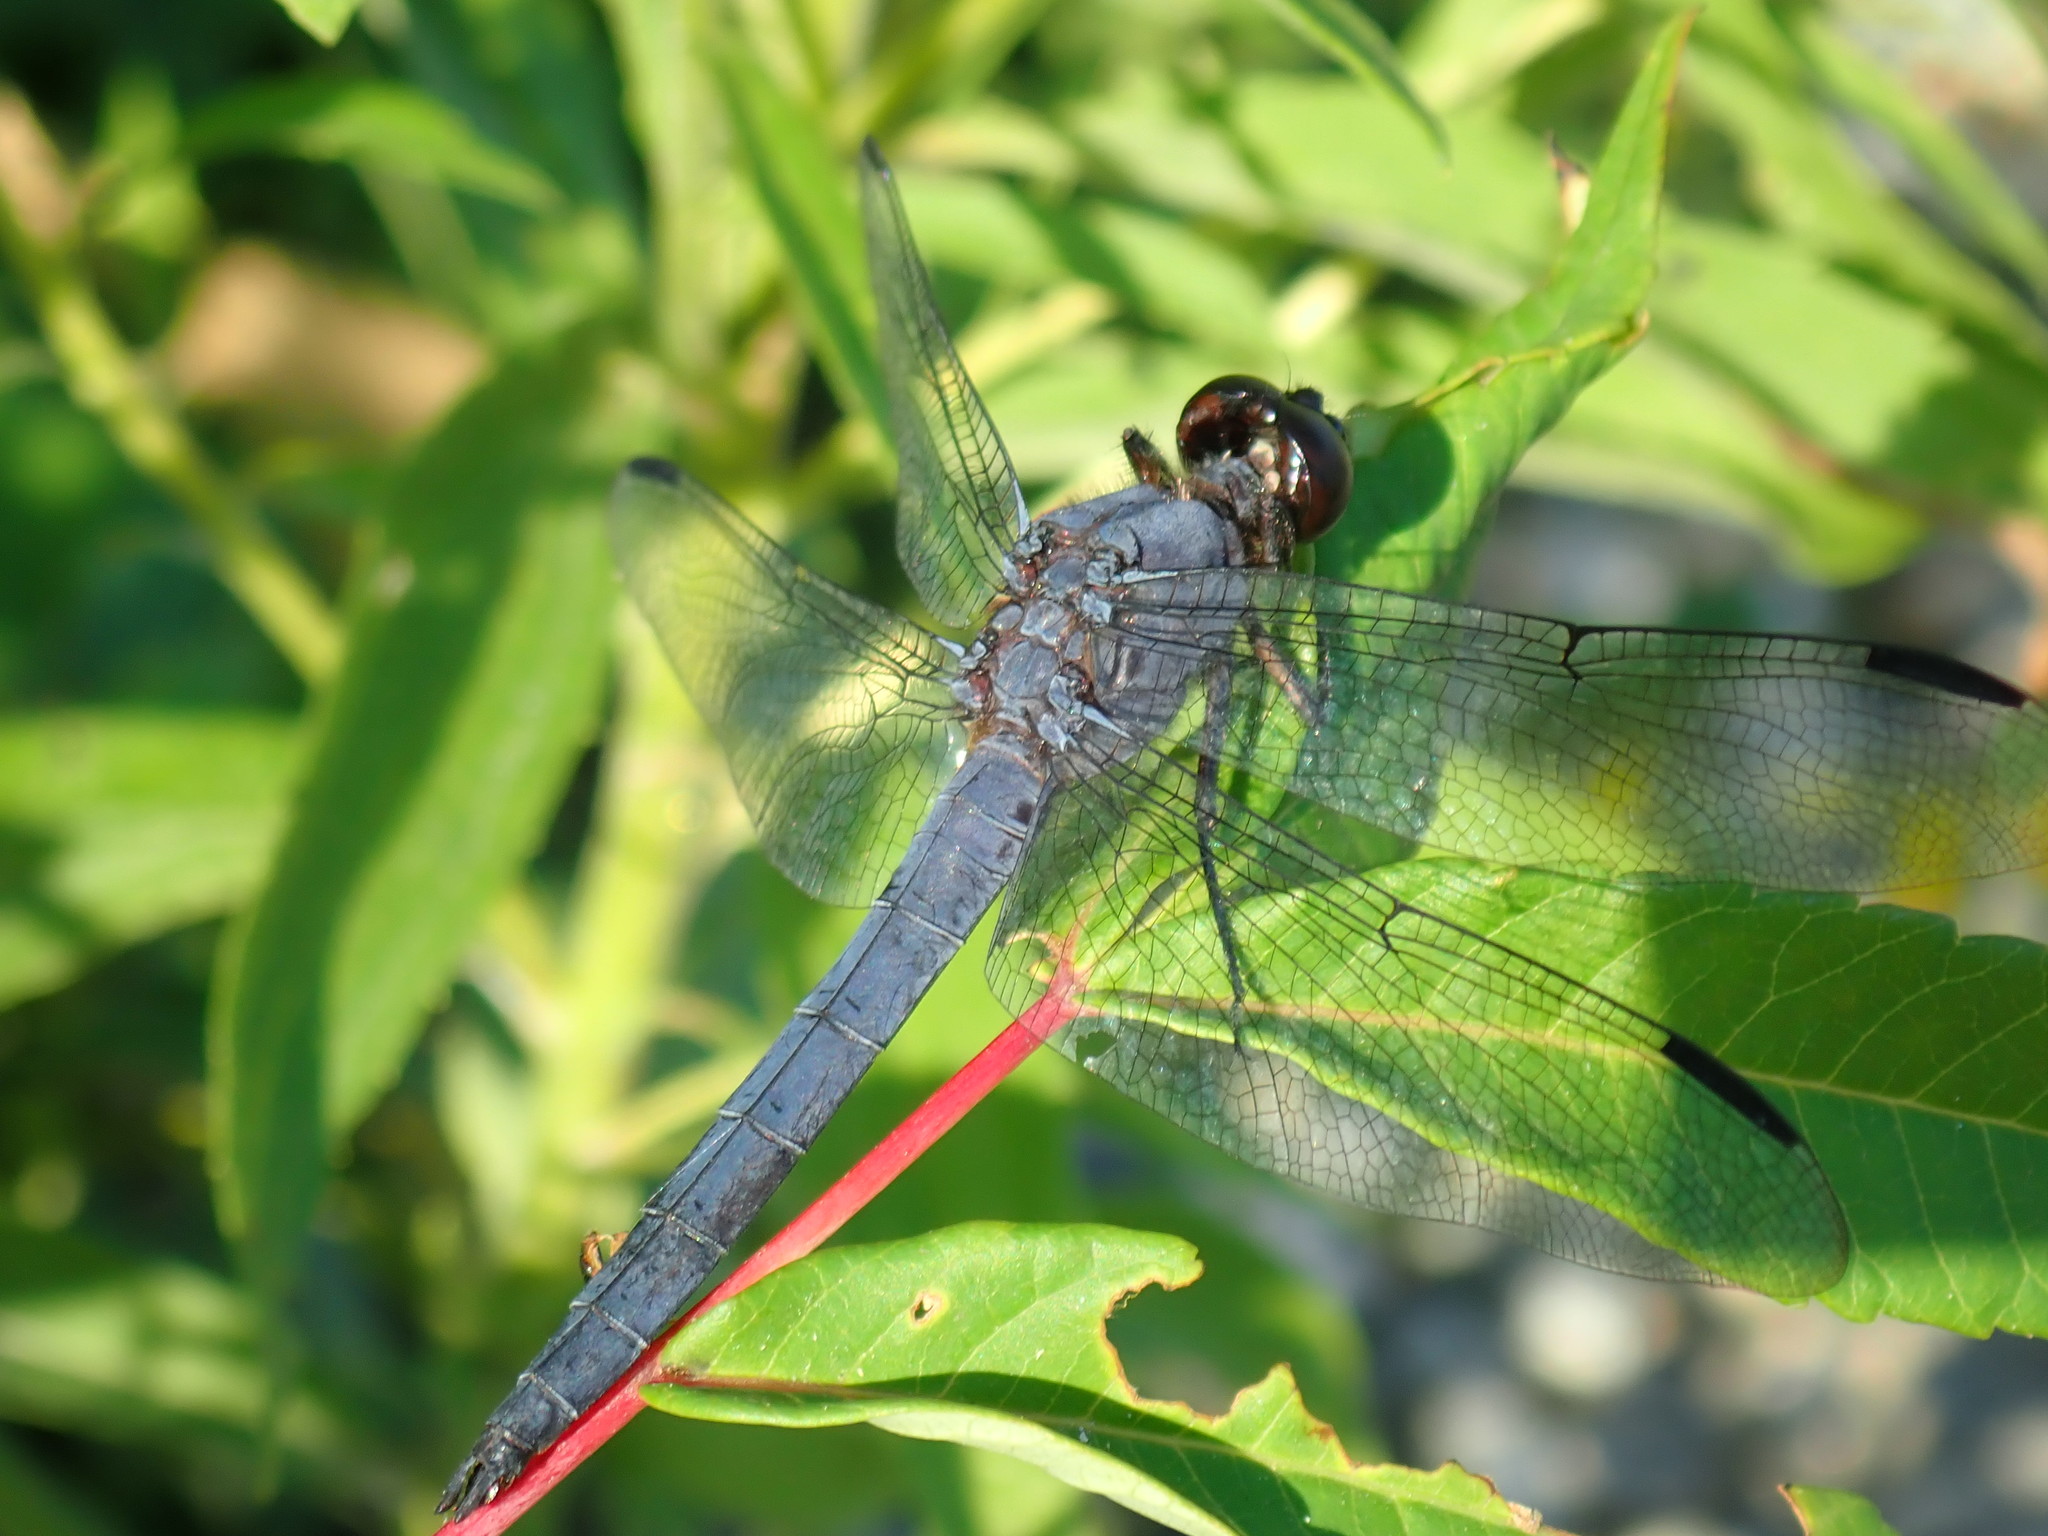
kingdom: Animalia
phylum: Arthropoda
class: Insecta
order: Odonata
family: Libellulidae
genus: Libellula
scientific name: Libellula incesta
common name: Slaty skimmer
